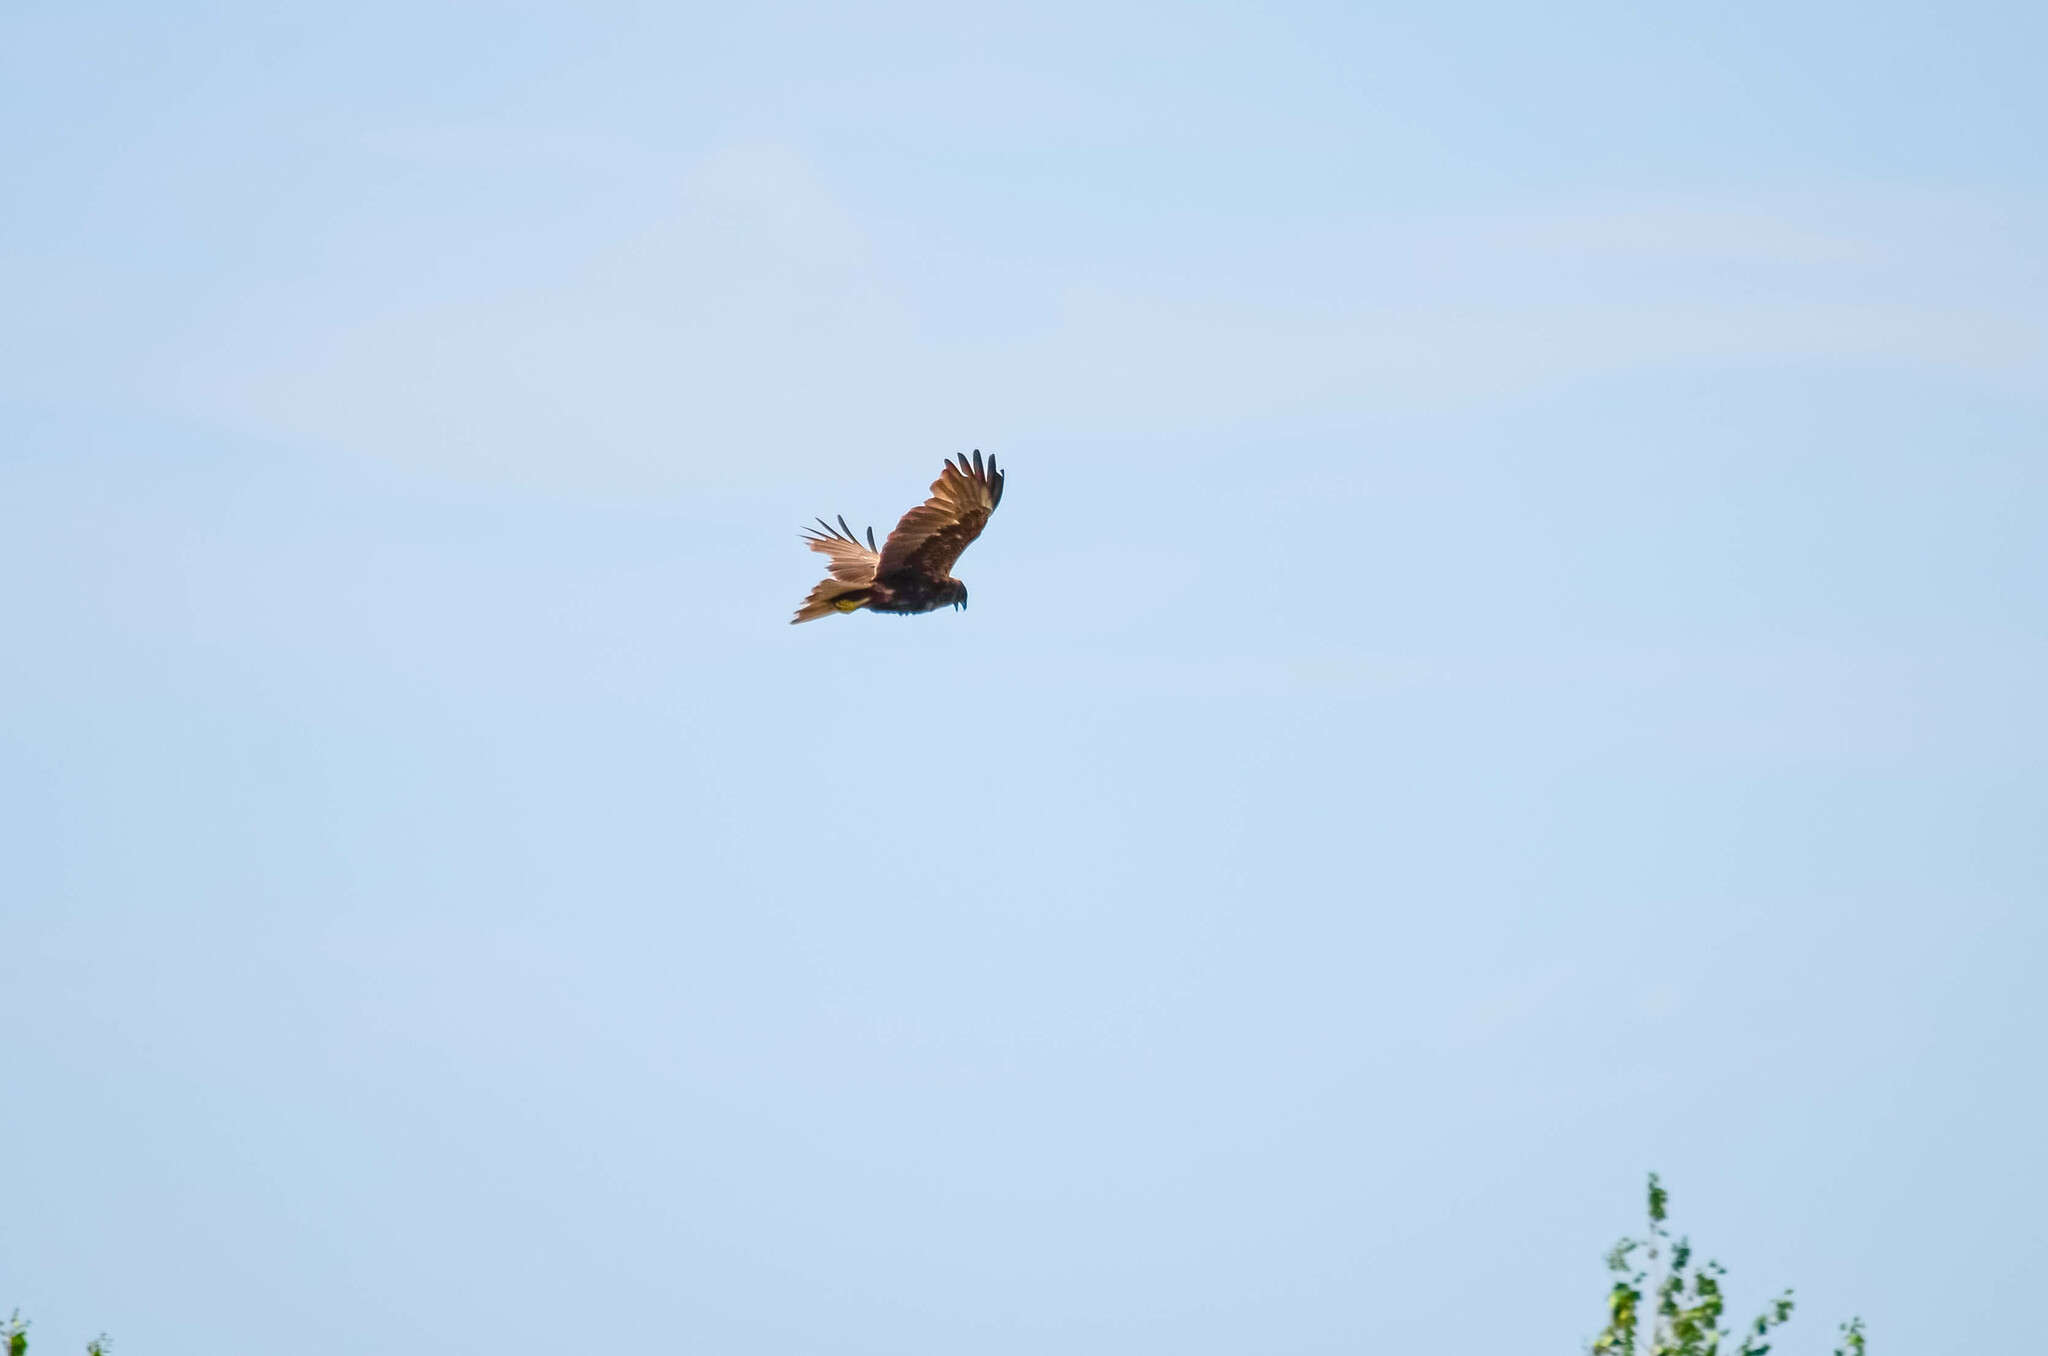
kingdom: Animalia
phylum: Chordata
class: Aves
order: Accipitriformes
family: Accipitridae
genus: Circus
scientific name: Circus aeruginosus
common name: Western marsh harrier
